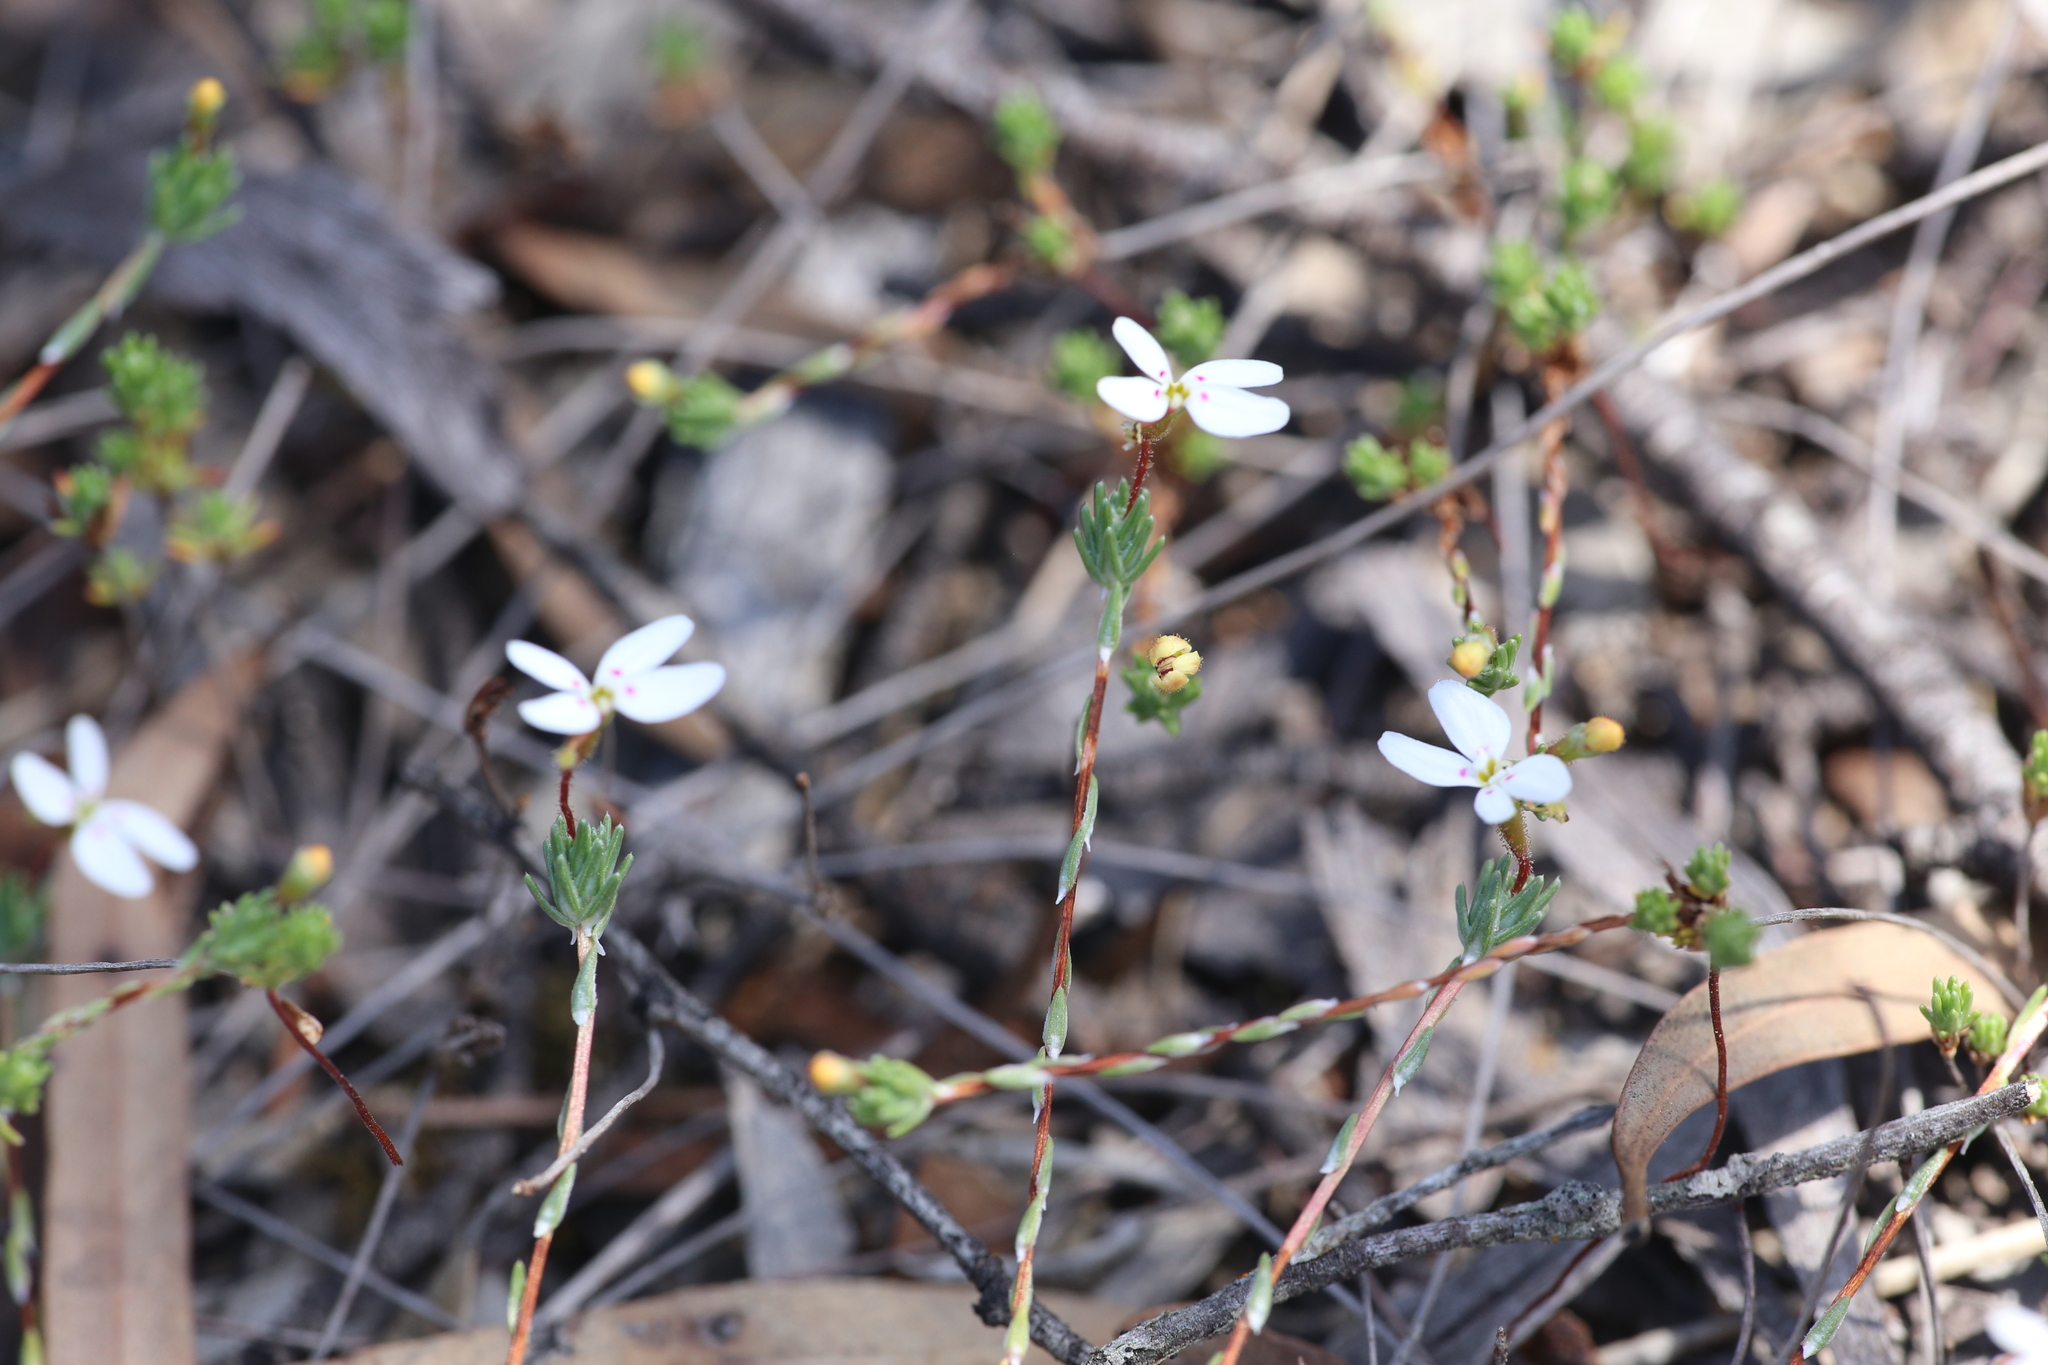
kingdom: Plantae
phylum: Tracheophyta
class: Magnoliopsida
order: Asterales
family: Stylidiaceae
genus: Stylidium
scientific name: Stylidium repens
